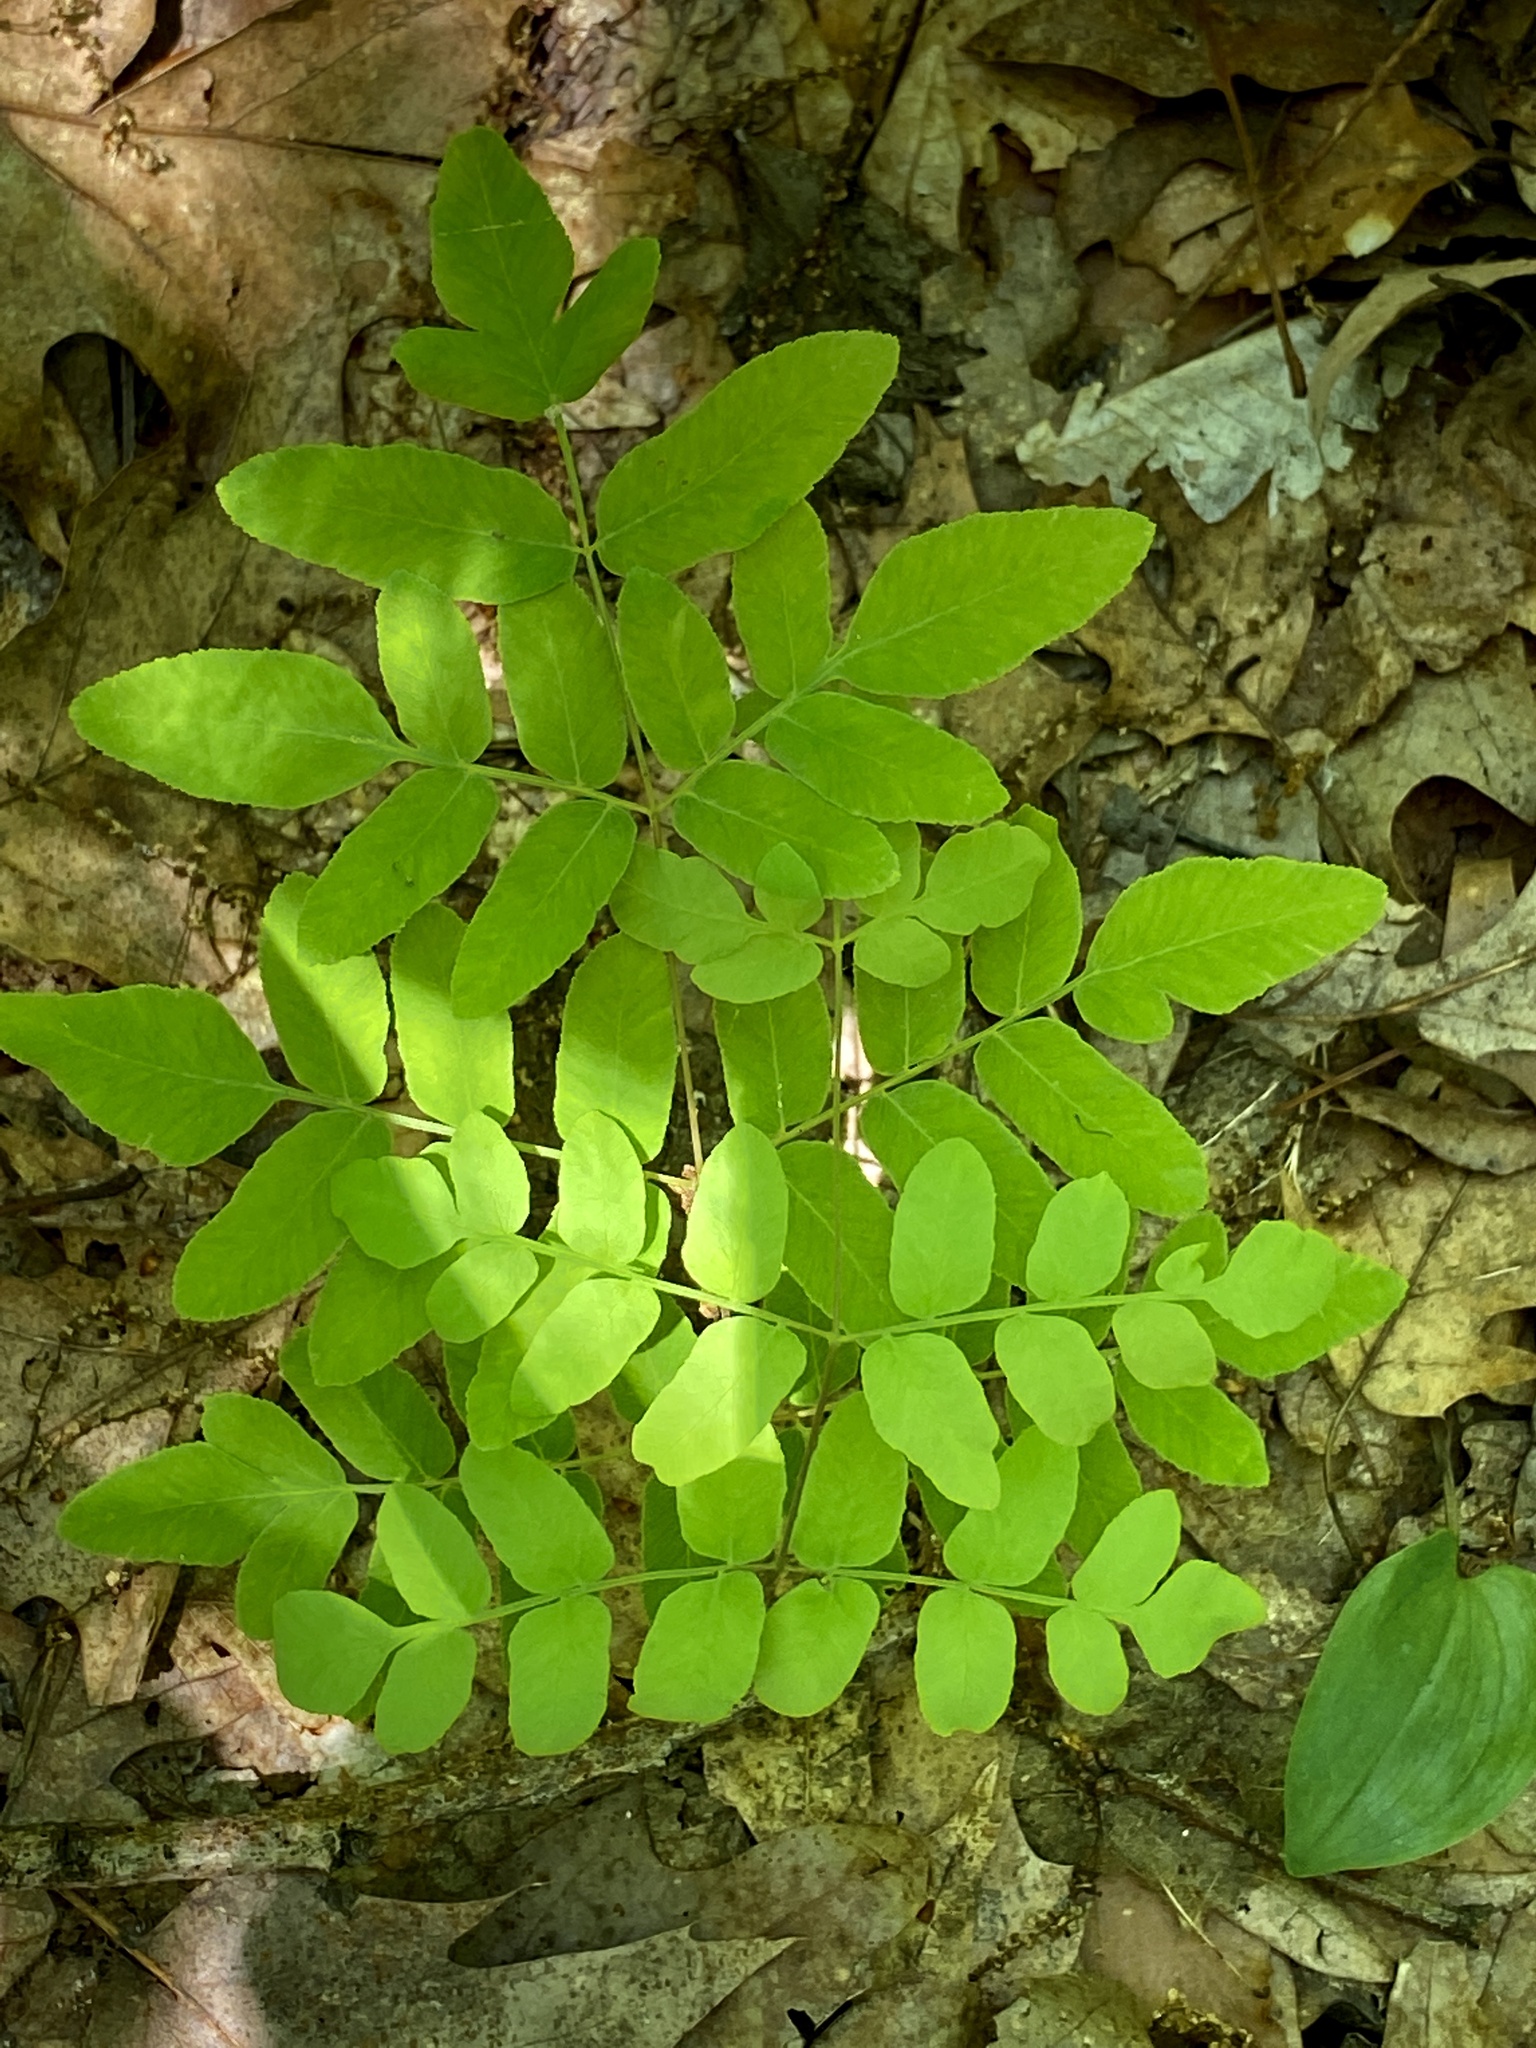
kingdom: Plantae
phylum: Tracheophyta
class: Polypodiopsida
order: Osmundales
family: Osmundaceae
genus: Osmunda
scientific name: Osmunda spectabilis
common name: American royal fern
